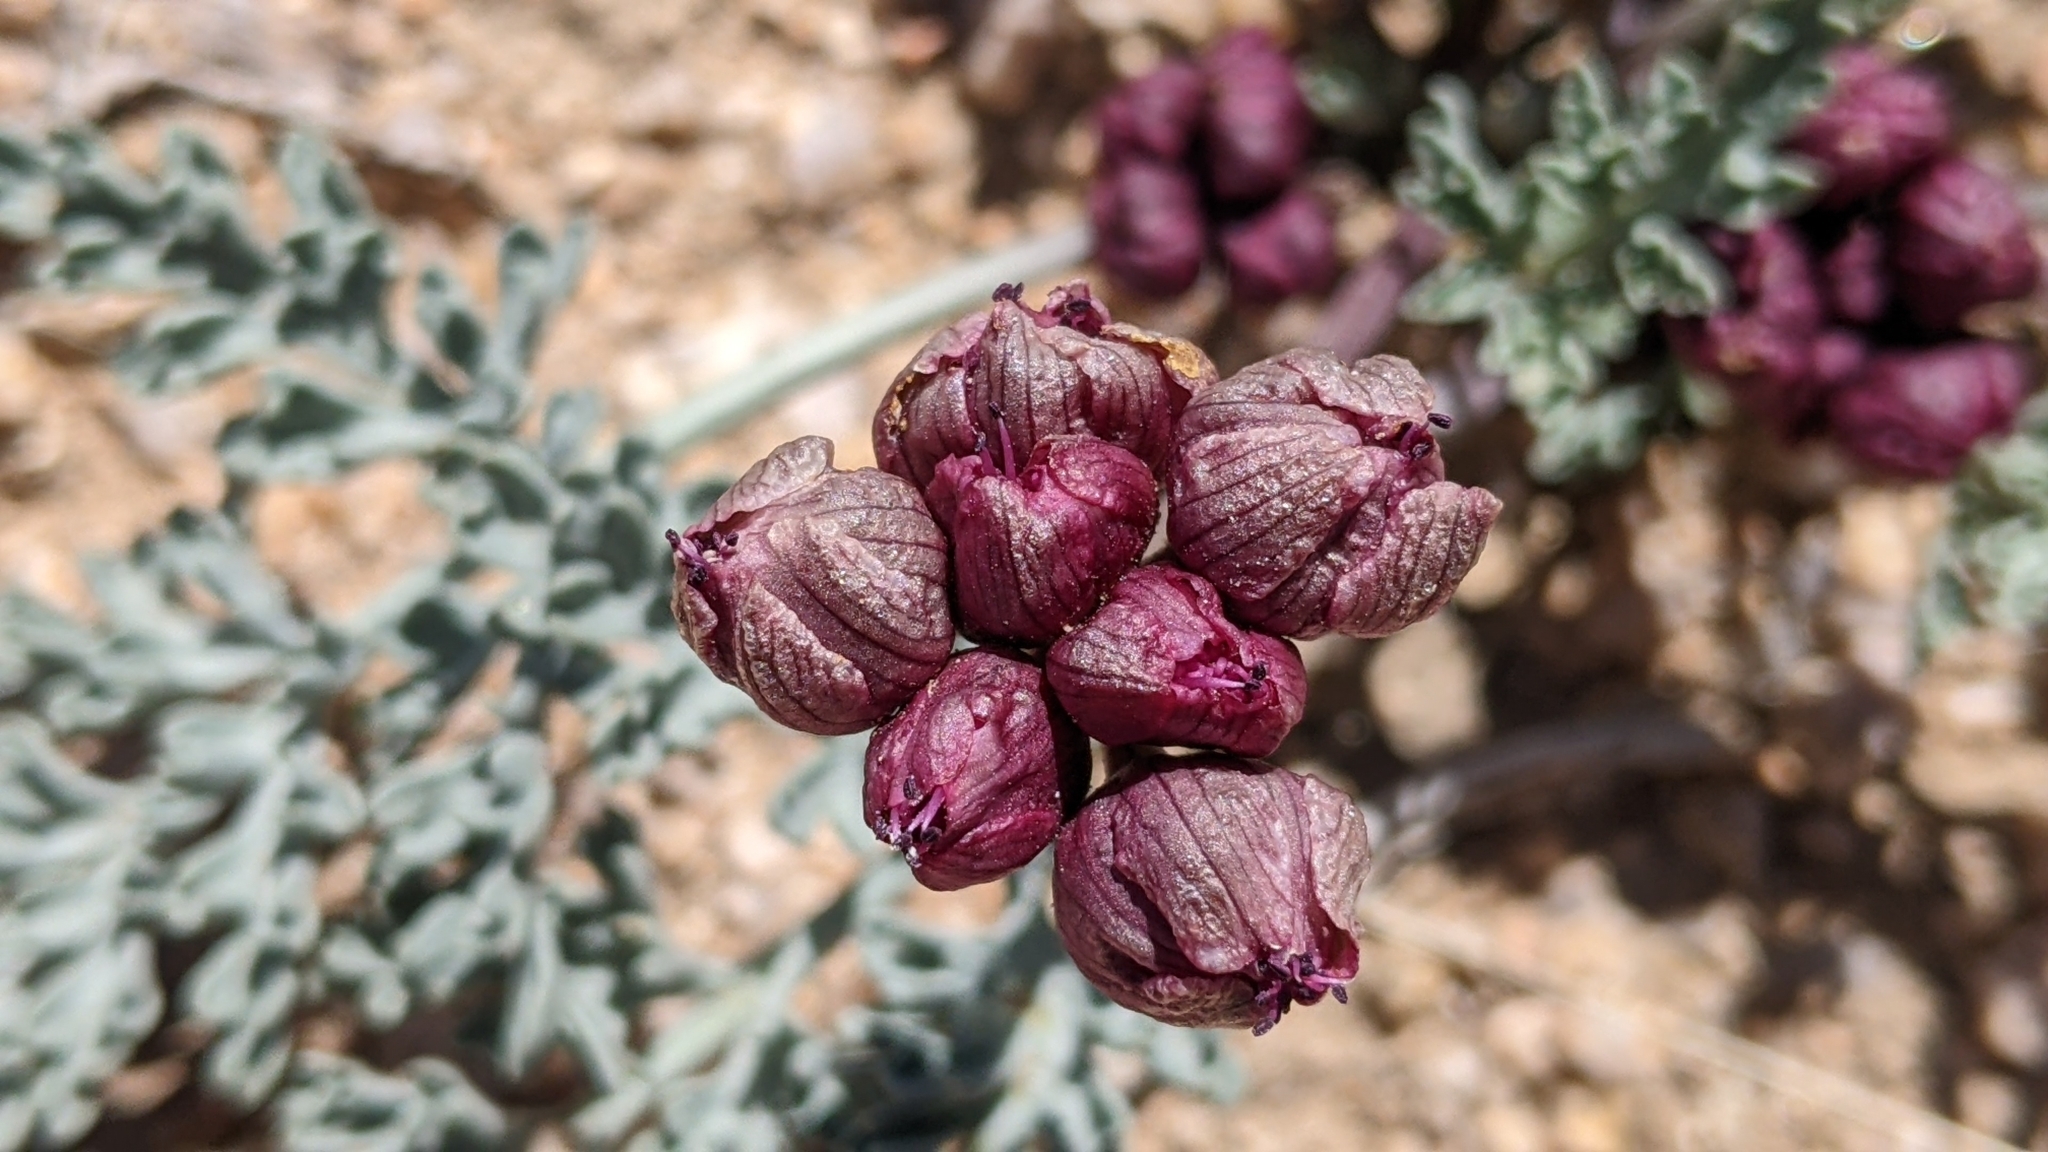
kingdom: Plantae
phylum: Tracheophyta
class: Magnoliopsida
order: Apiales
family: Apiaceae
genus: Vesper
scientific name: Vesper multinervatus
